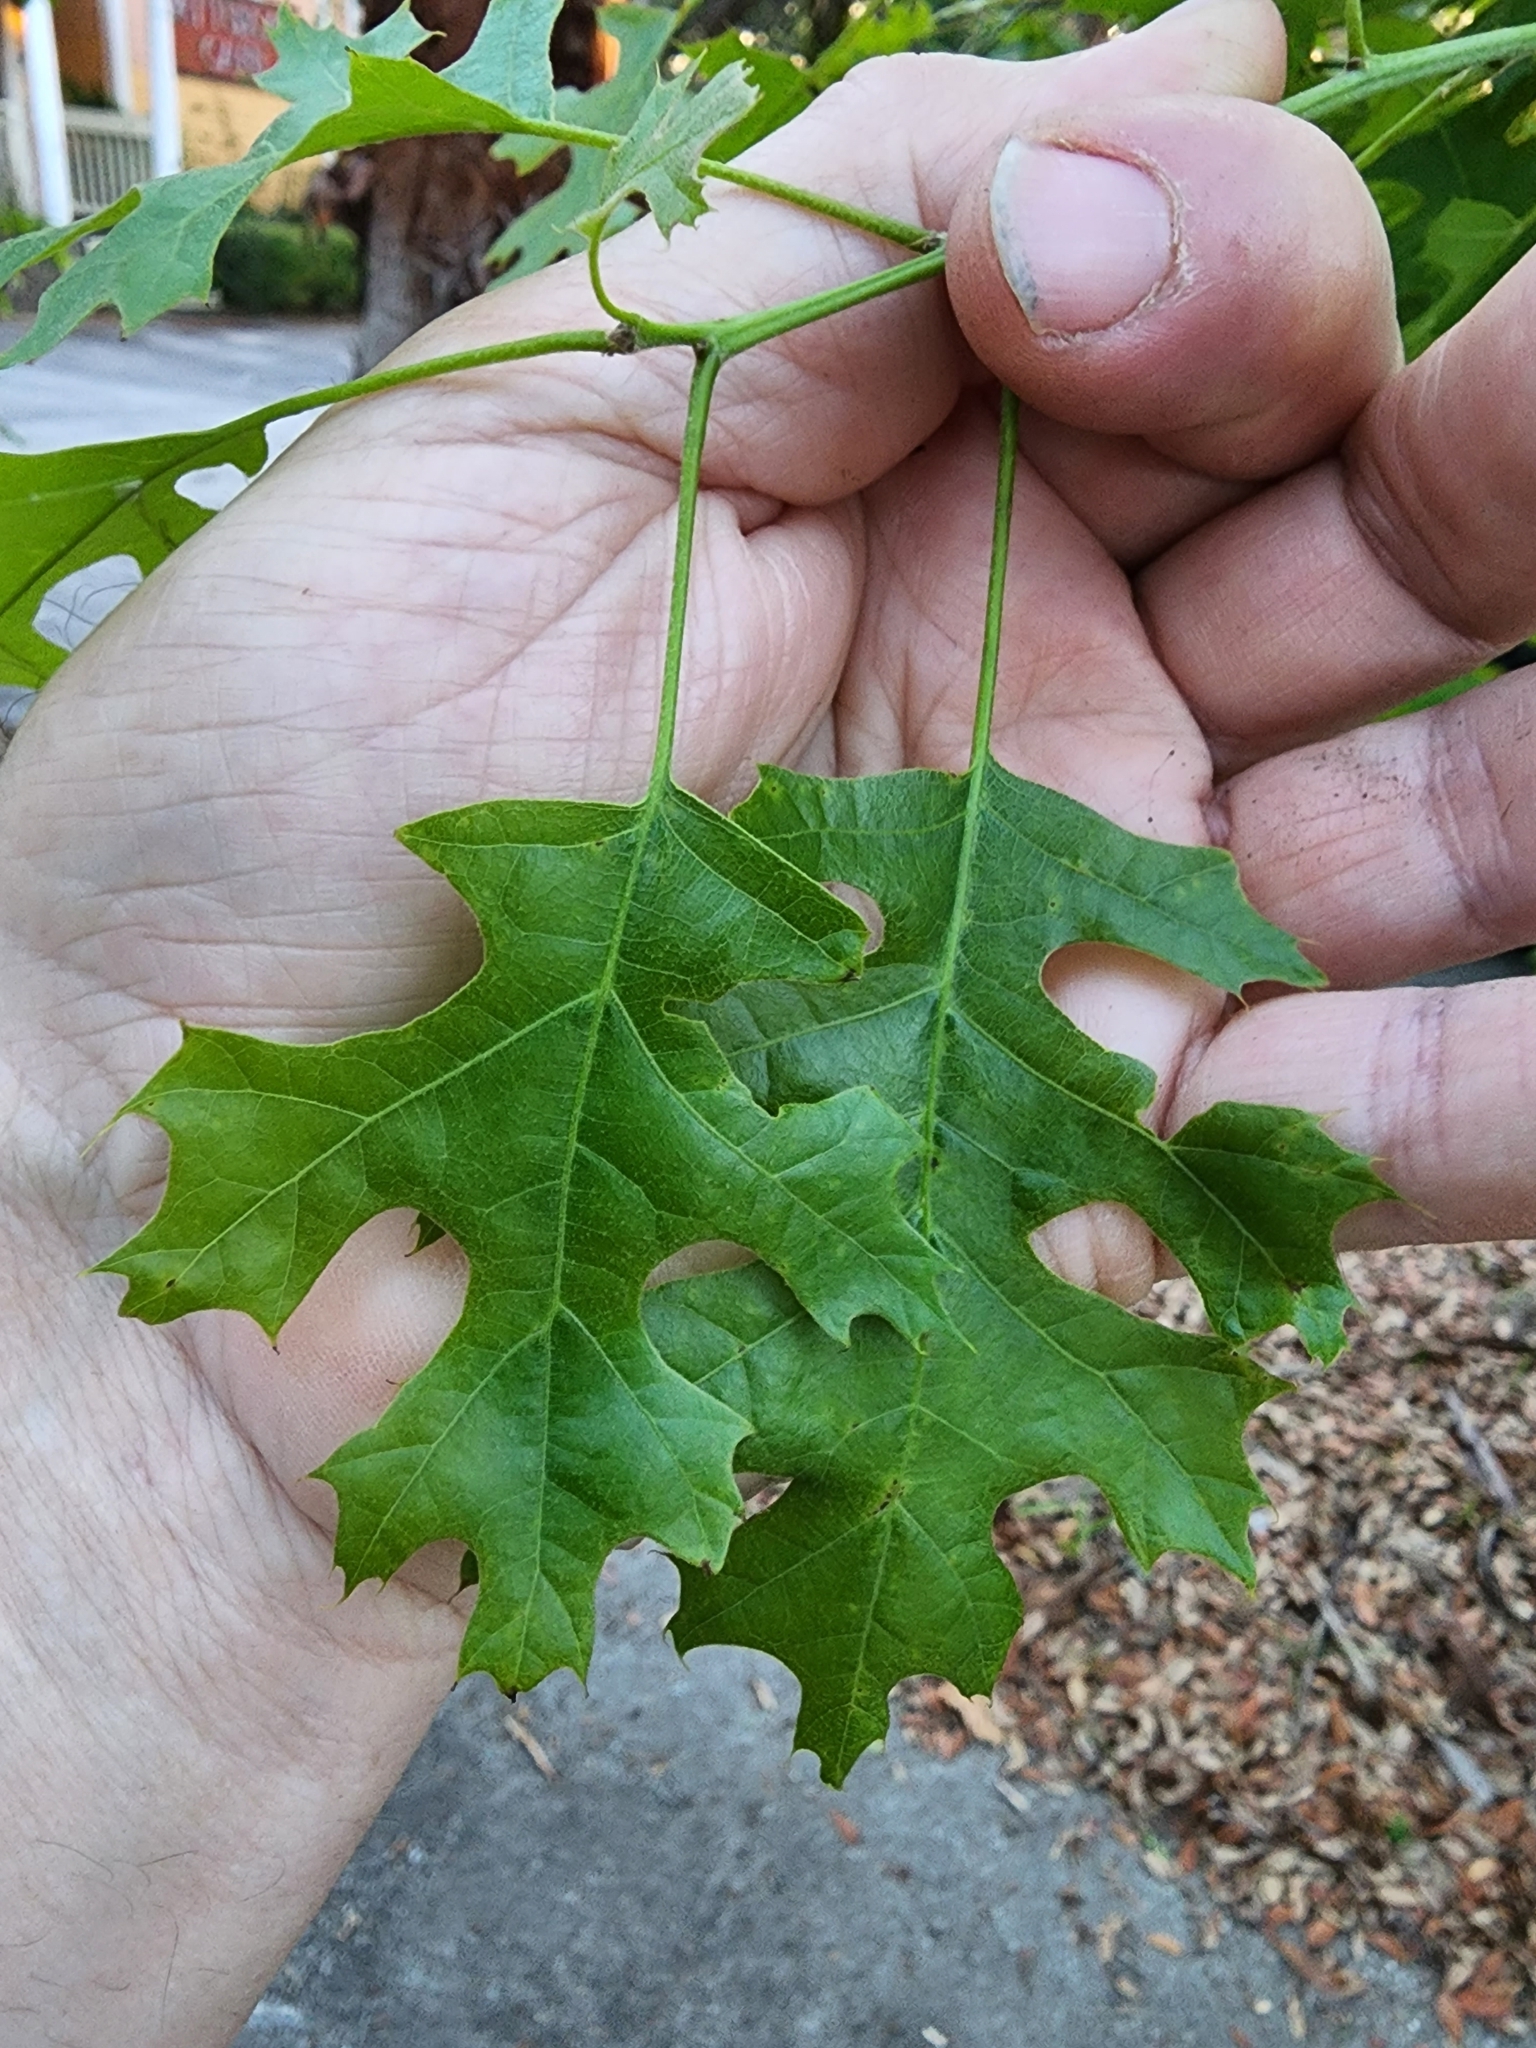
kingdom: Plantae
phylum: Tracheophyta
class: Magnoliopsida
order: Fagales
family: Fagaceae
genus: Quercus
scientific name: Quercus shumardii
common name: Shumard oak
